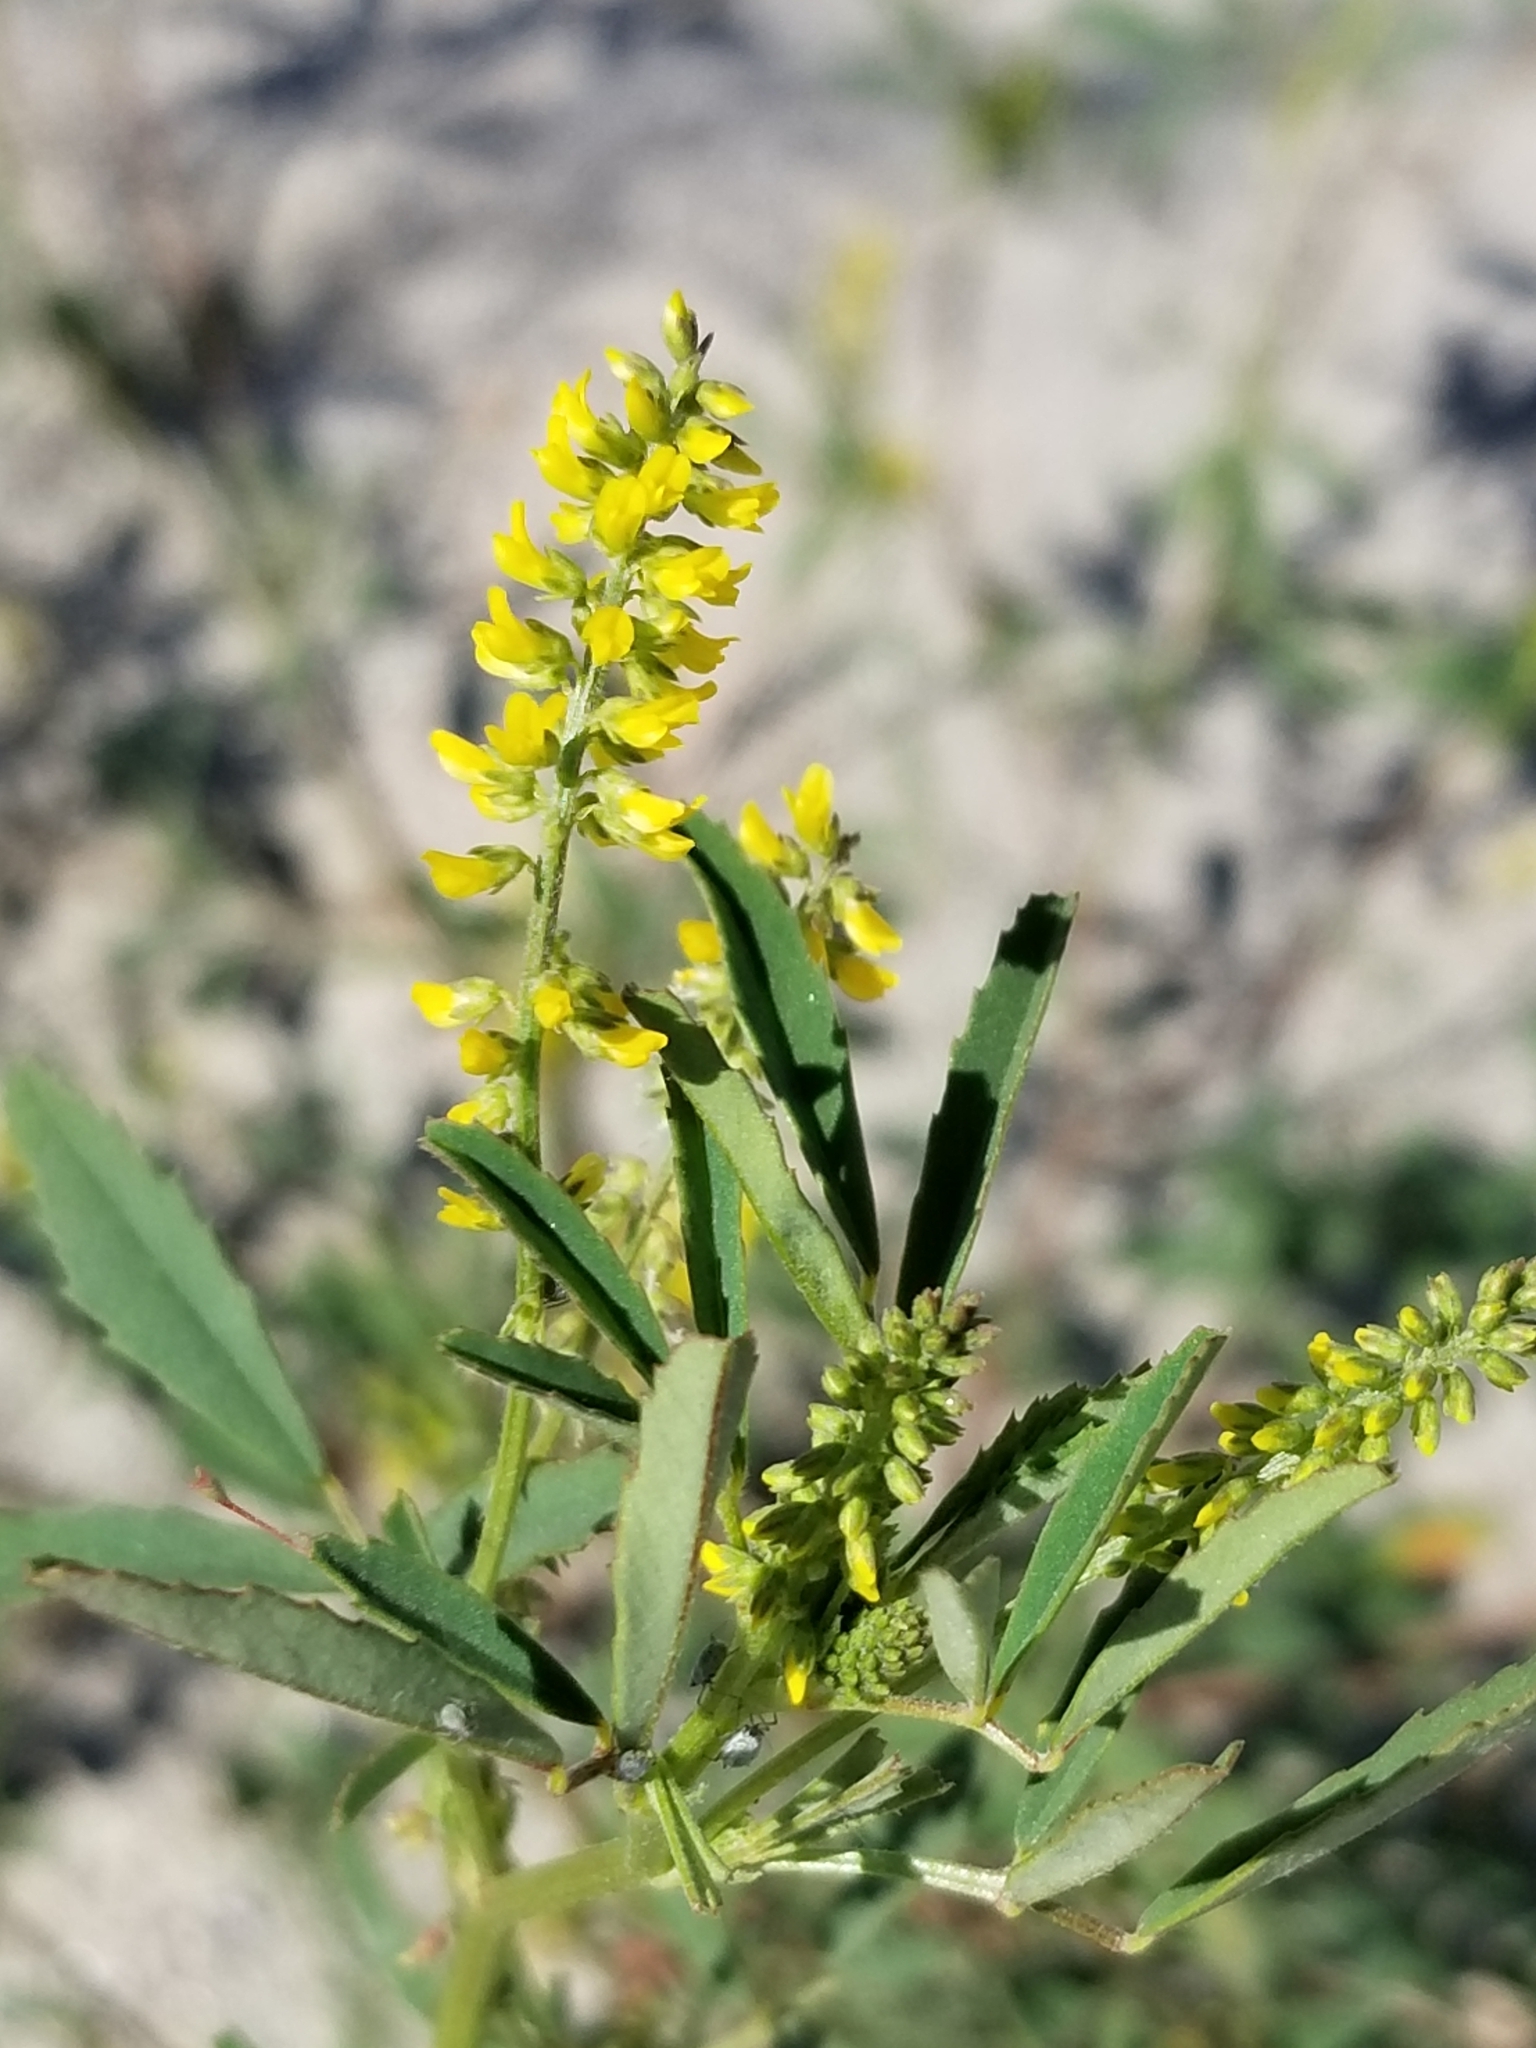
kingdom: Plantae
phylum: Tracheophyta
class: Magnoliopsida
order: Fabales
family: Fabaceae
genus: Melilotus
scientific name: Melilotus indicus
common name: Small melilot
